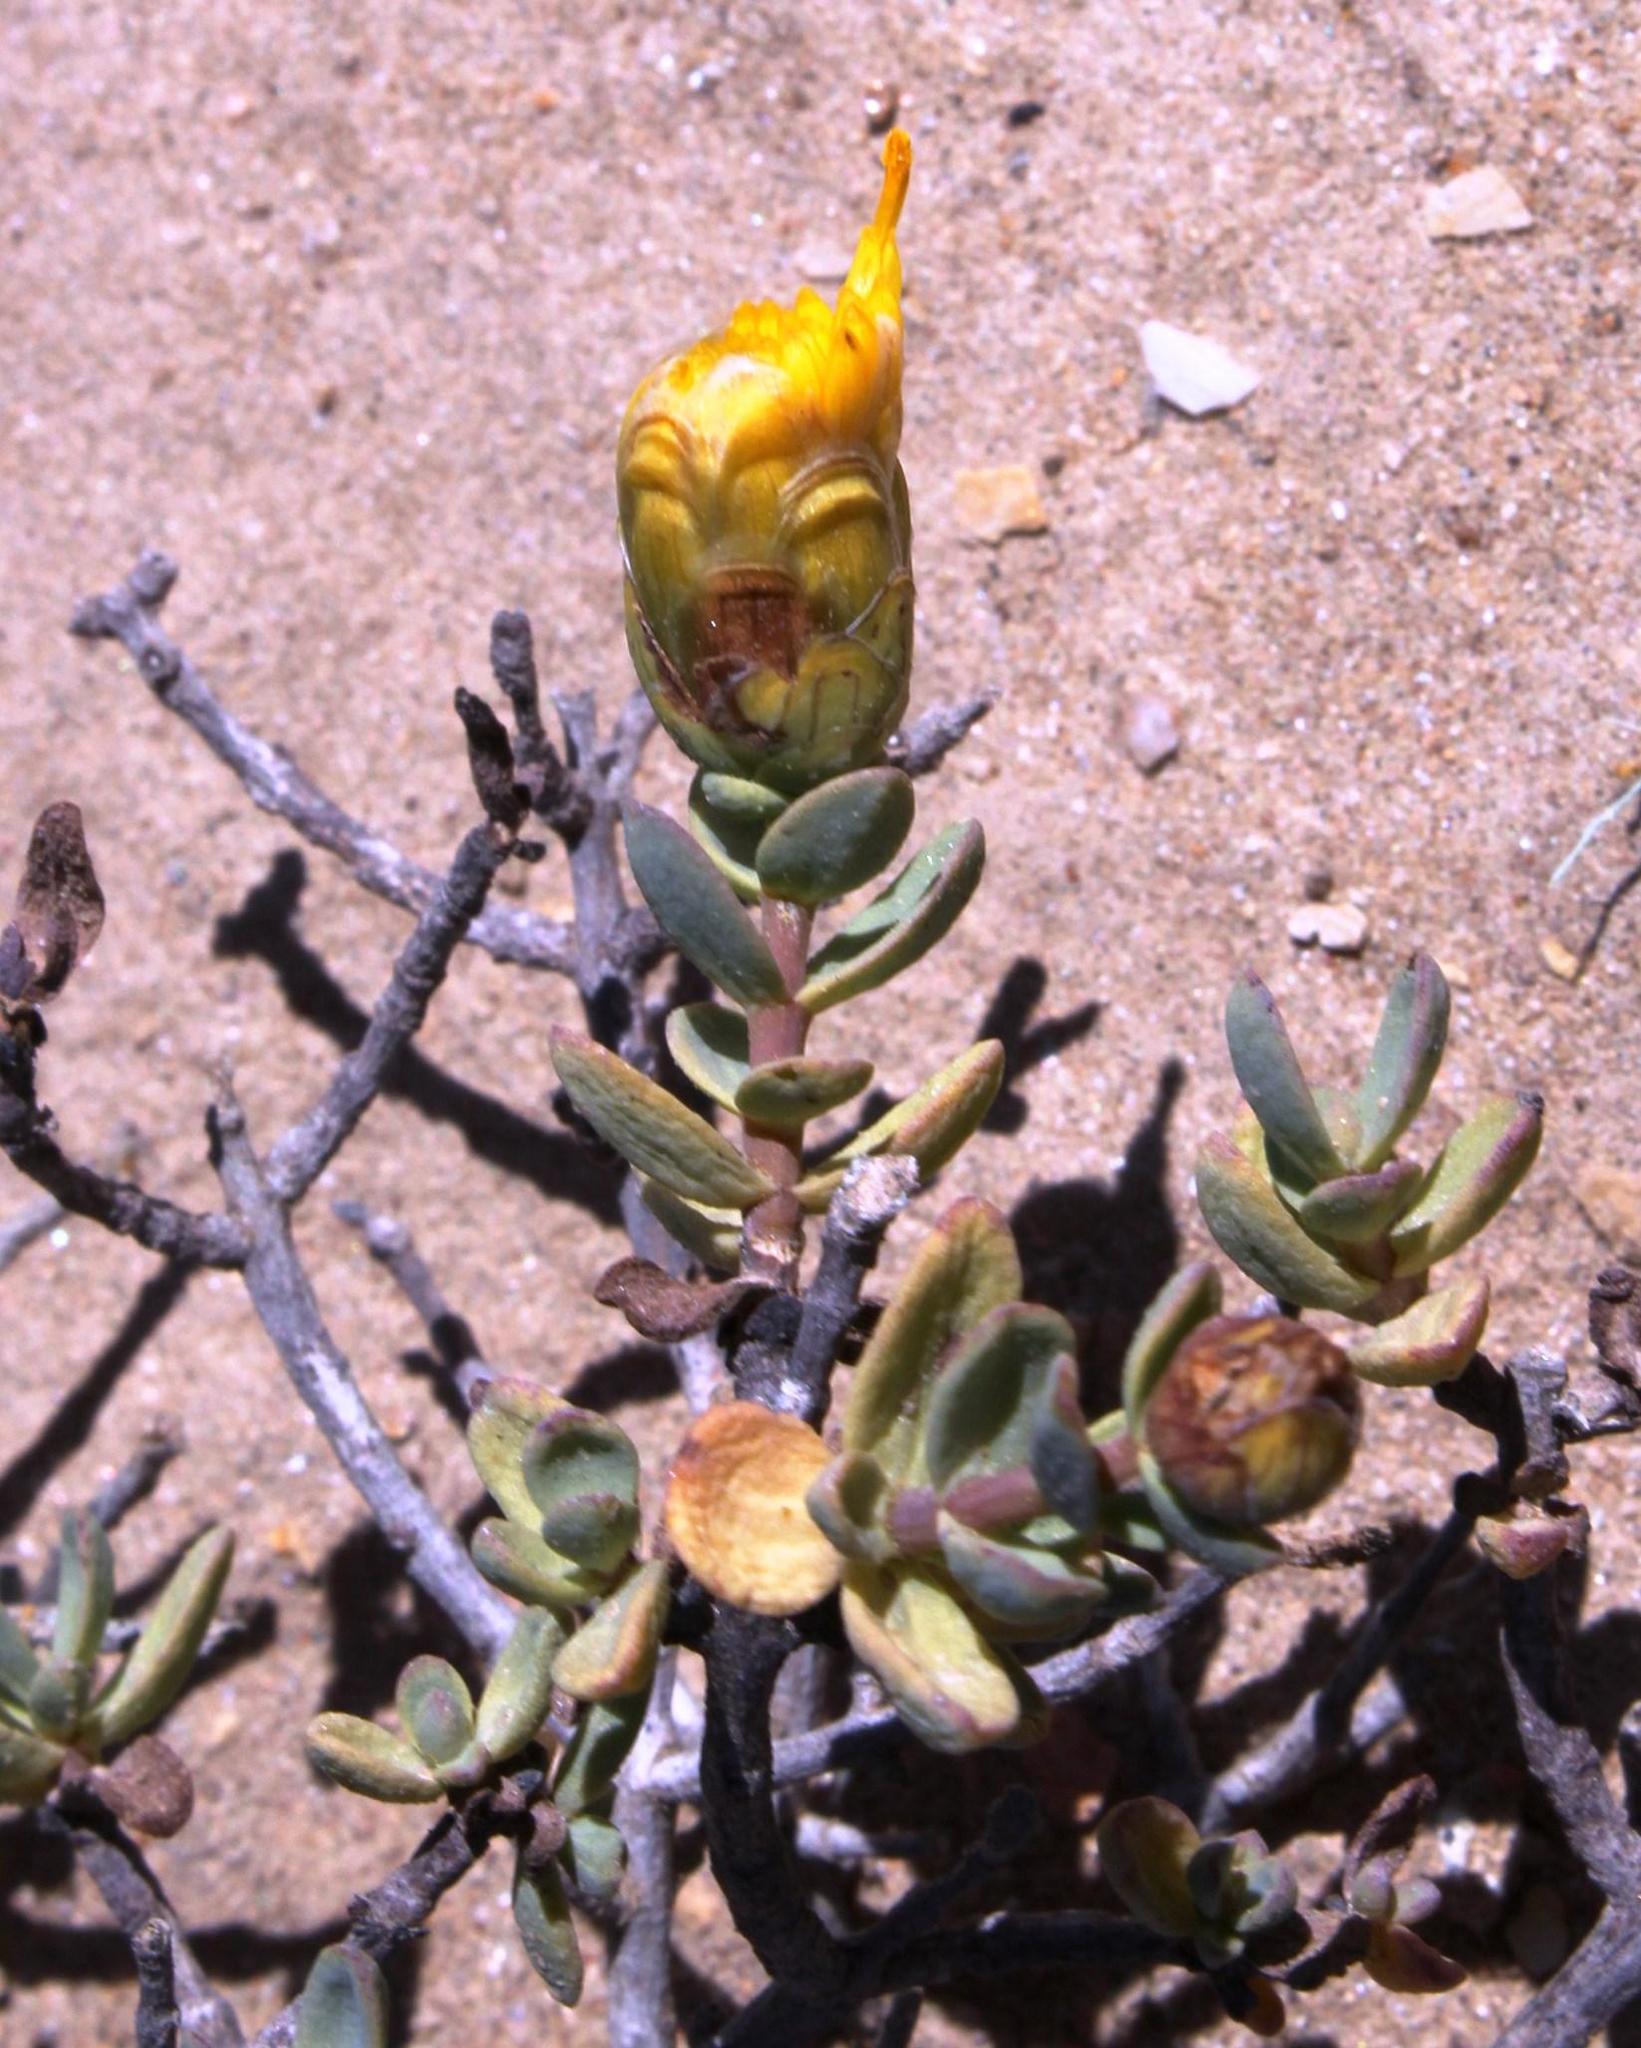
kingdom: Plantae
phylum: Tracheophyta
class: Magnoliopsida
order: Asterales
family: Asteraceae
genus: Pteronia
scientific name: Pteronia glabrata
